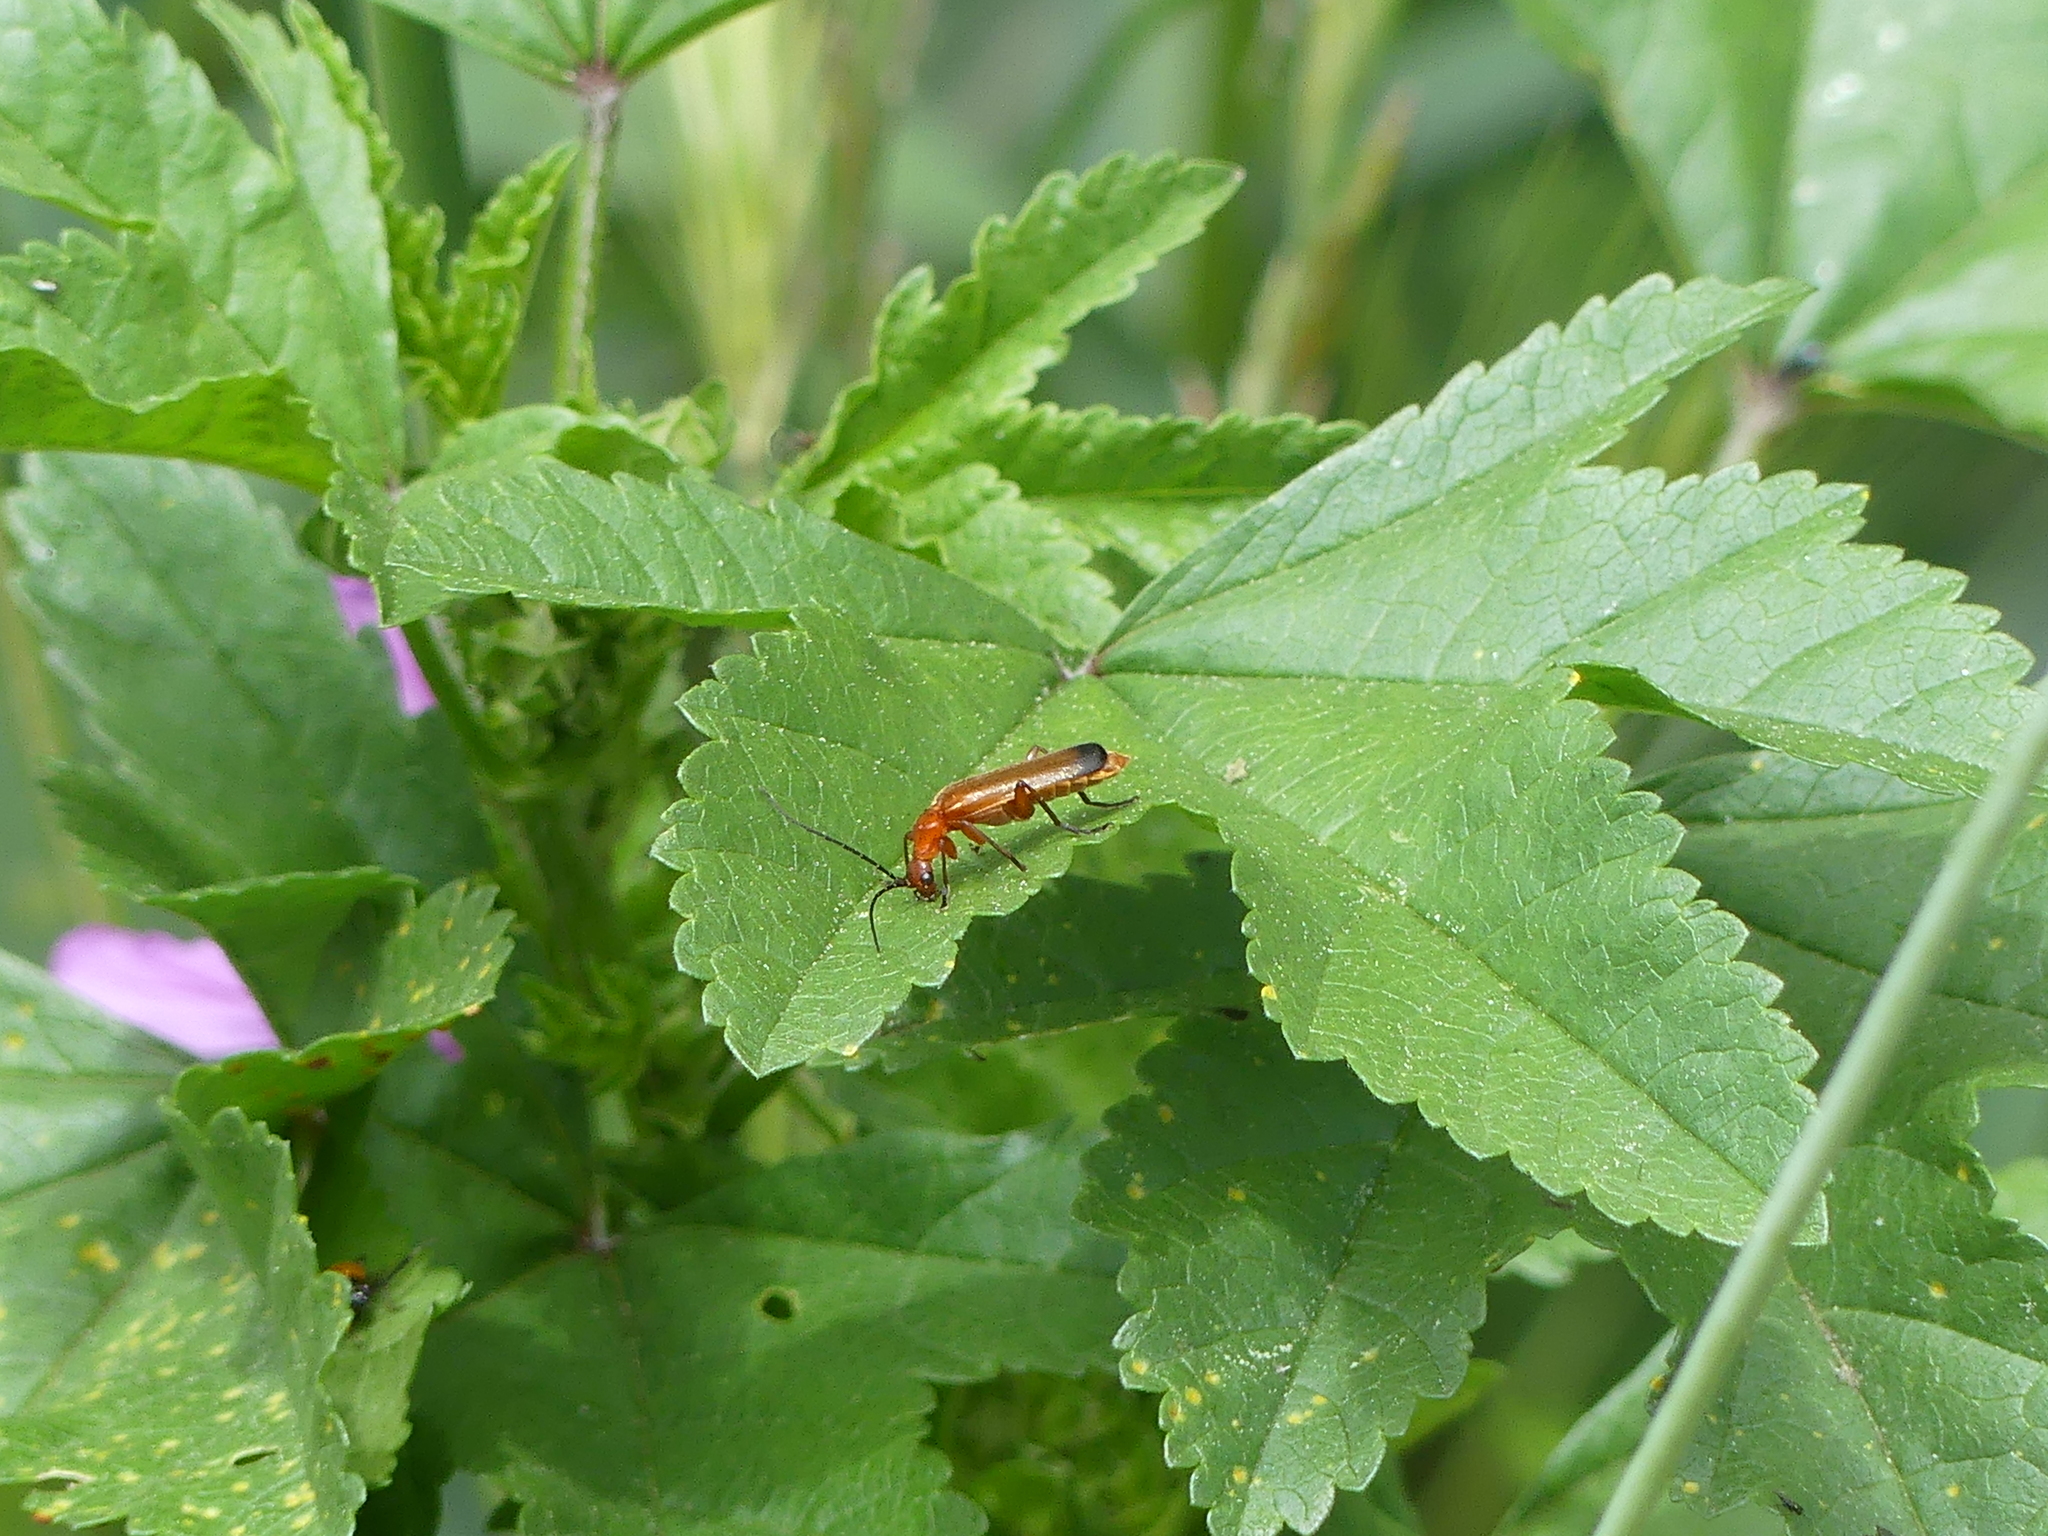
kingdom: Animalia
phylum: Arthropoda
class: Insecta
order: Coleoptera
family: Cantharidae
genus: Rhagonycha
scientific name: Rhagonycha fulva
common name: Common red soldier beetle
